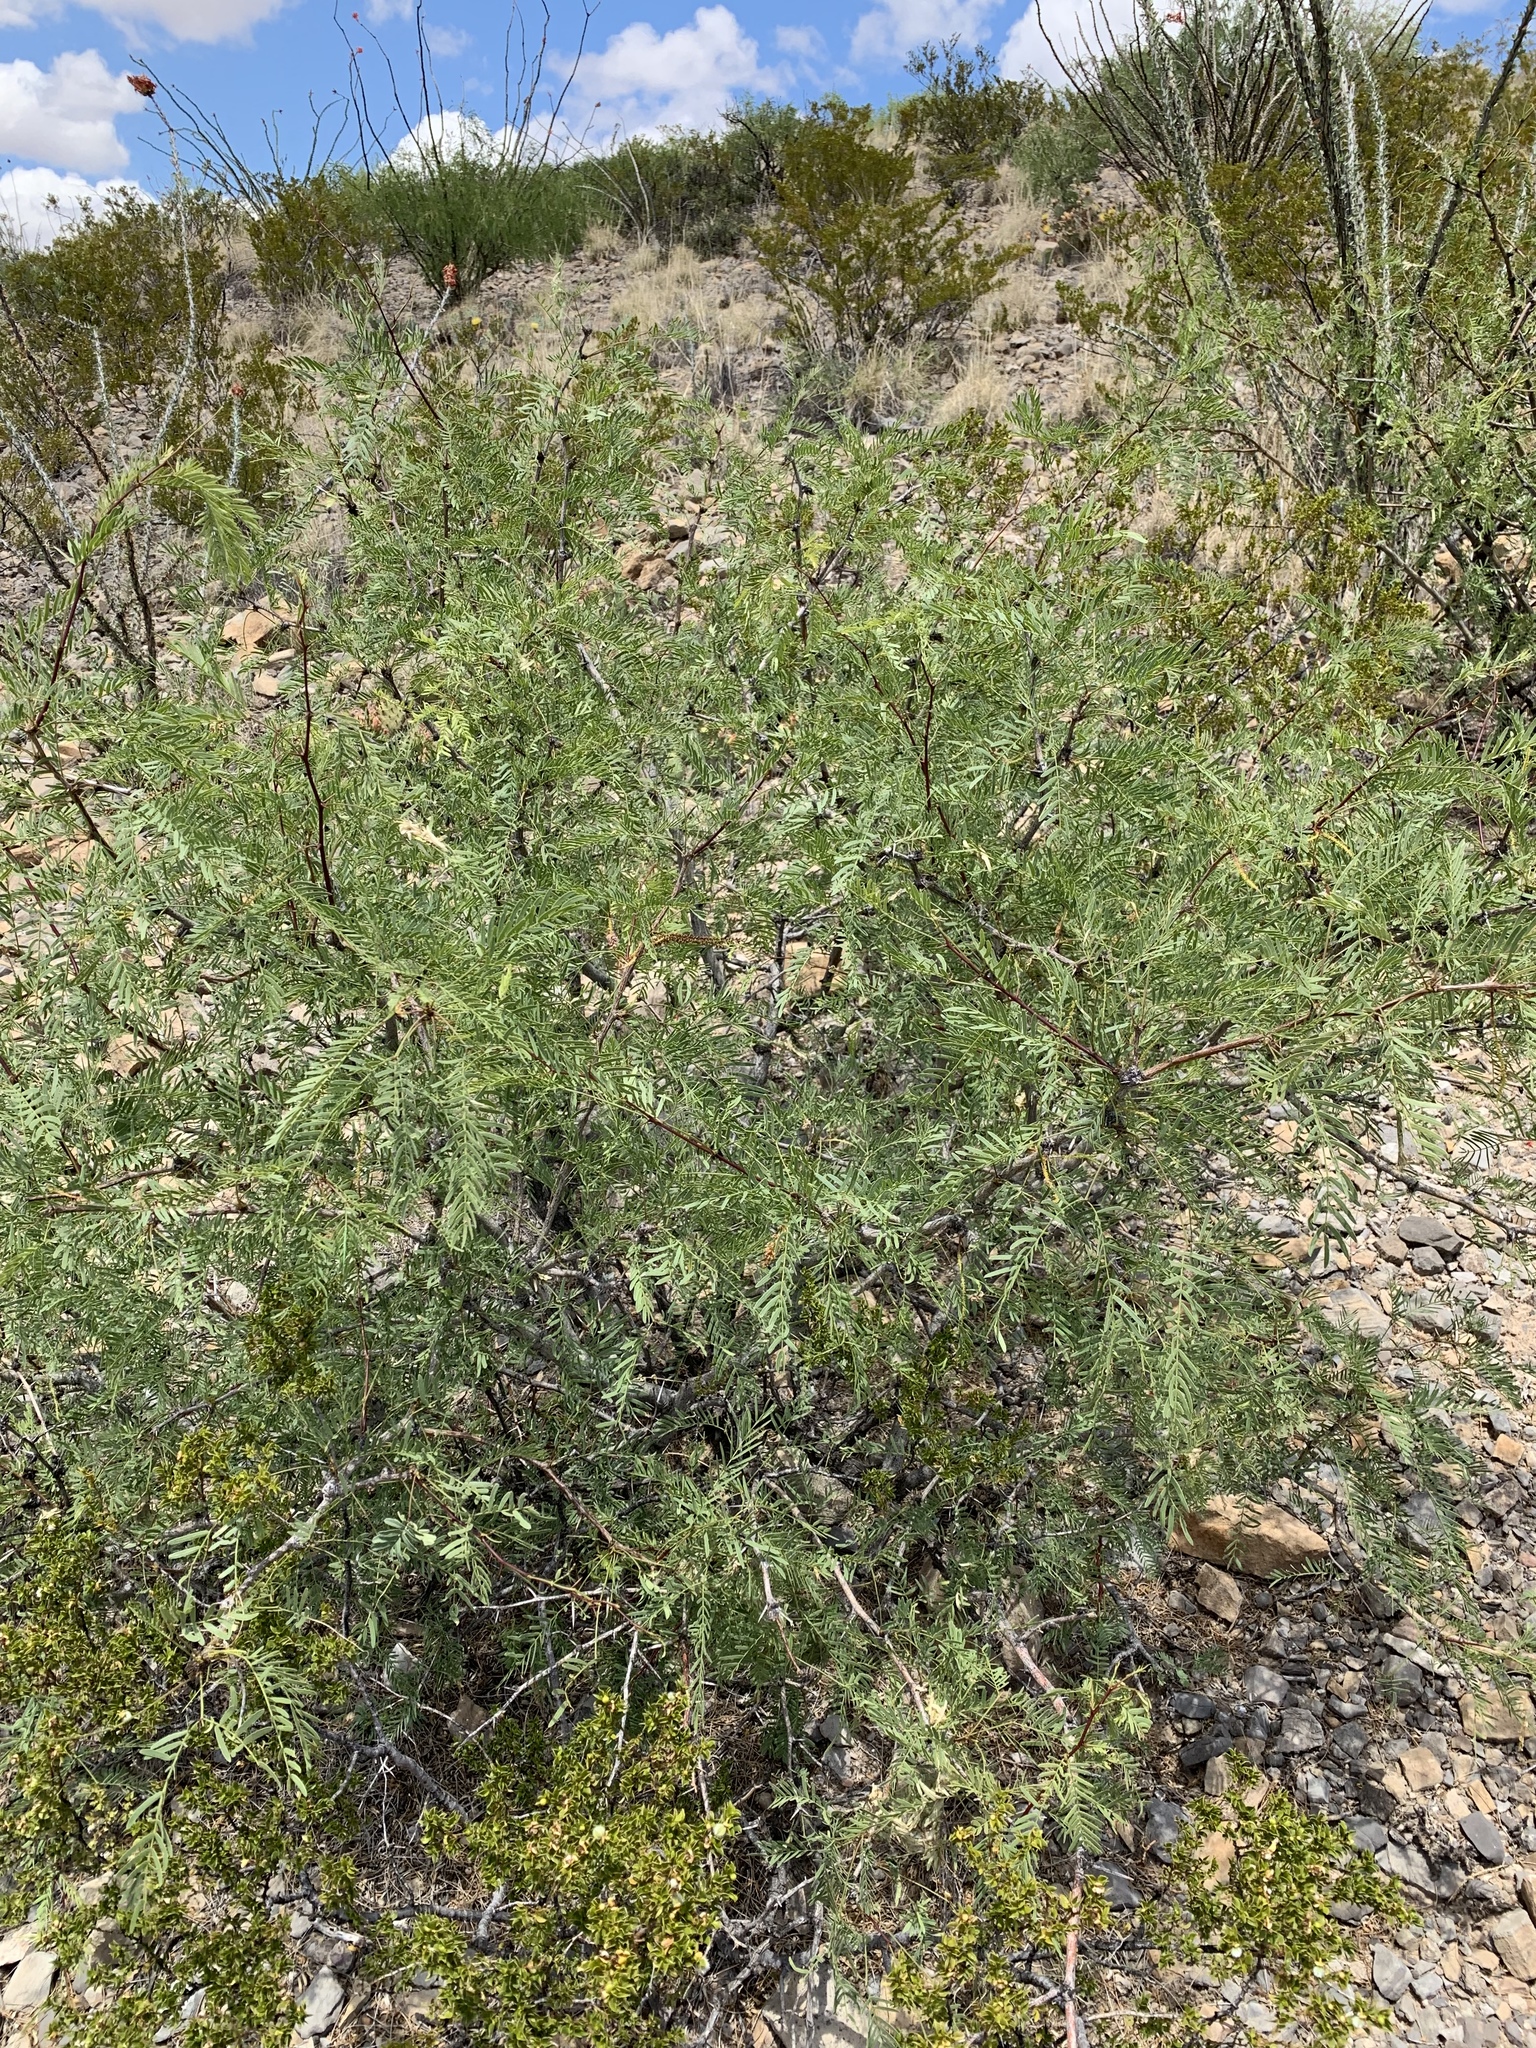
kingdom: Plantae
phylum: Tracheophyta
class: Magnoliopsida
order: Fabales
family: Fabaceae
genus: Prosopis
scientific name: Prosopis glandulosa
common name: Honey mesquite
